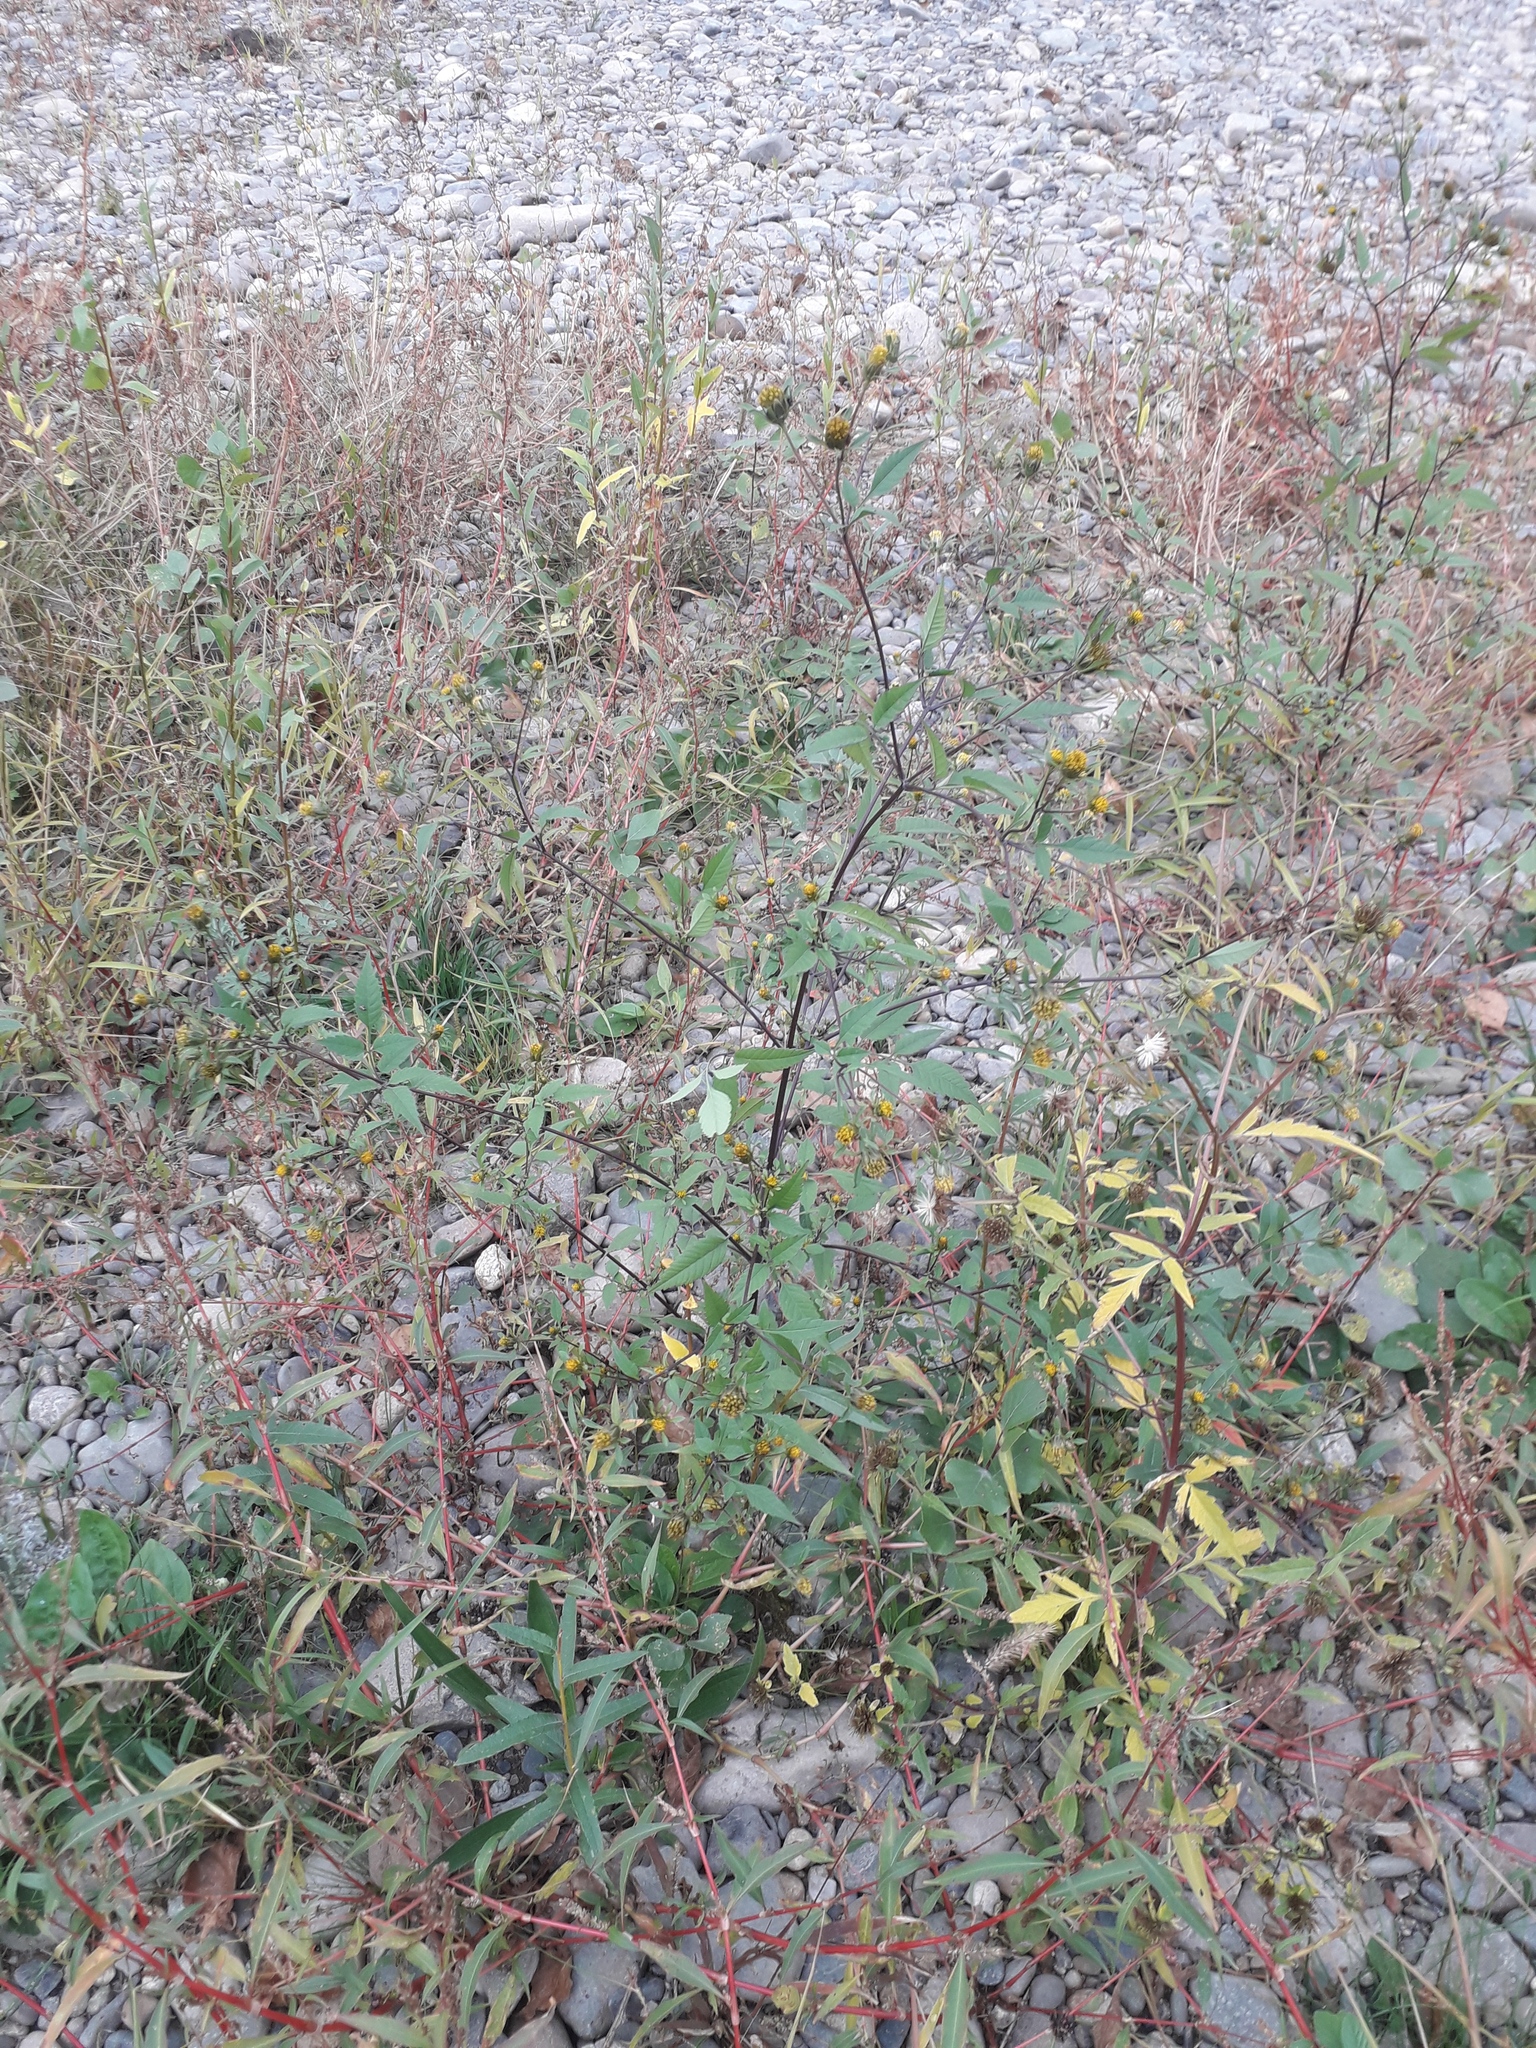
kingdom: Plantae
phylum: Tracheophyta
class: Magnoliopsida
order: Asterales
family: Asteraceae
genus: Bidens
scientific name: Bidens frondosa
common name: Beggarticks
